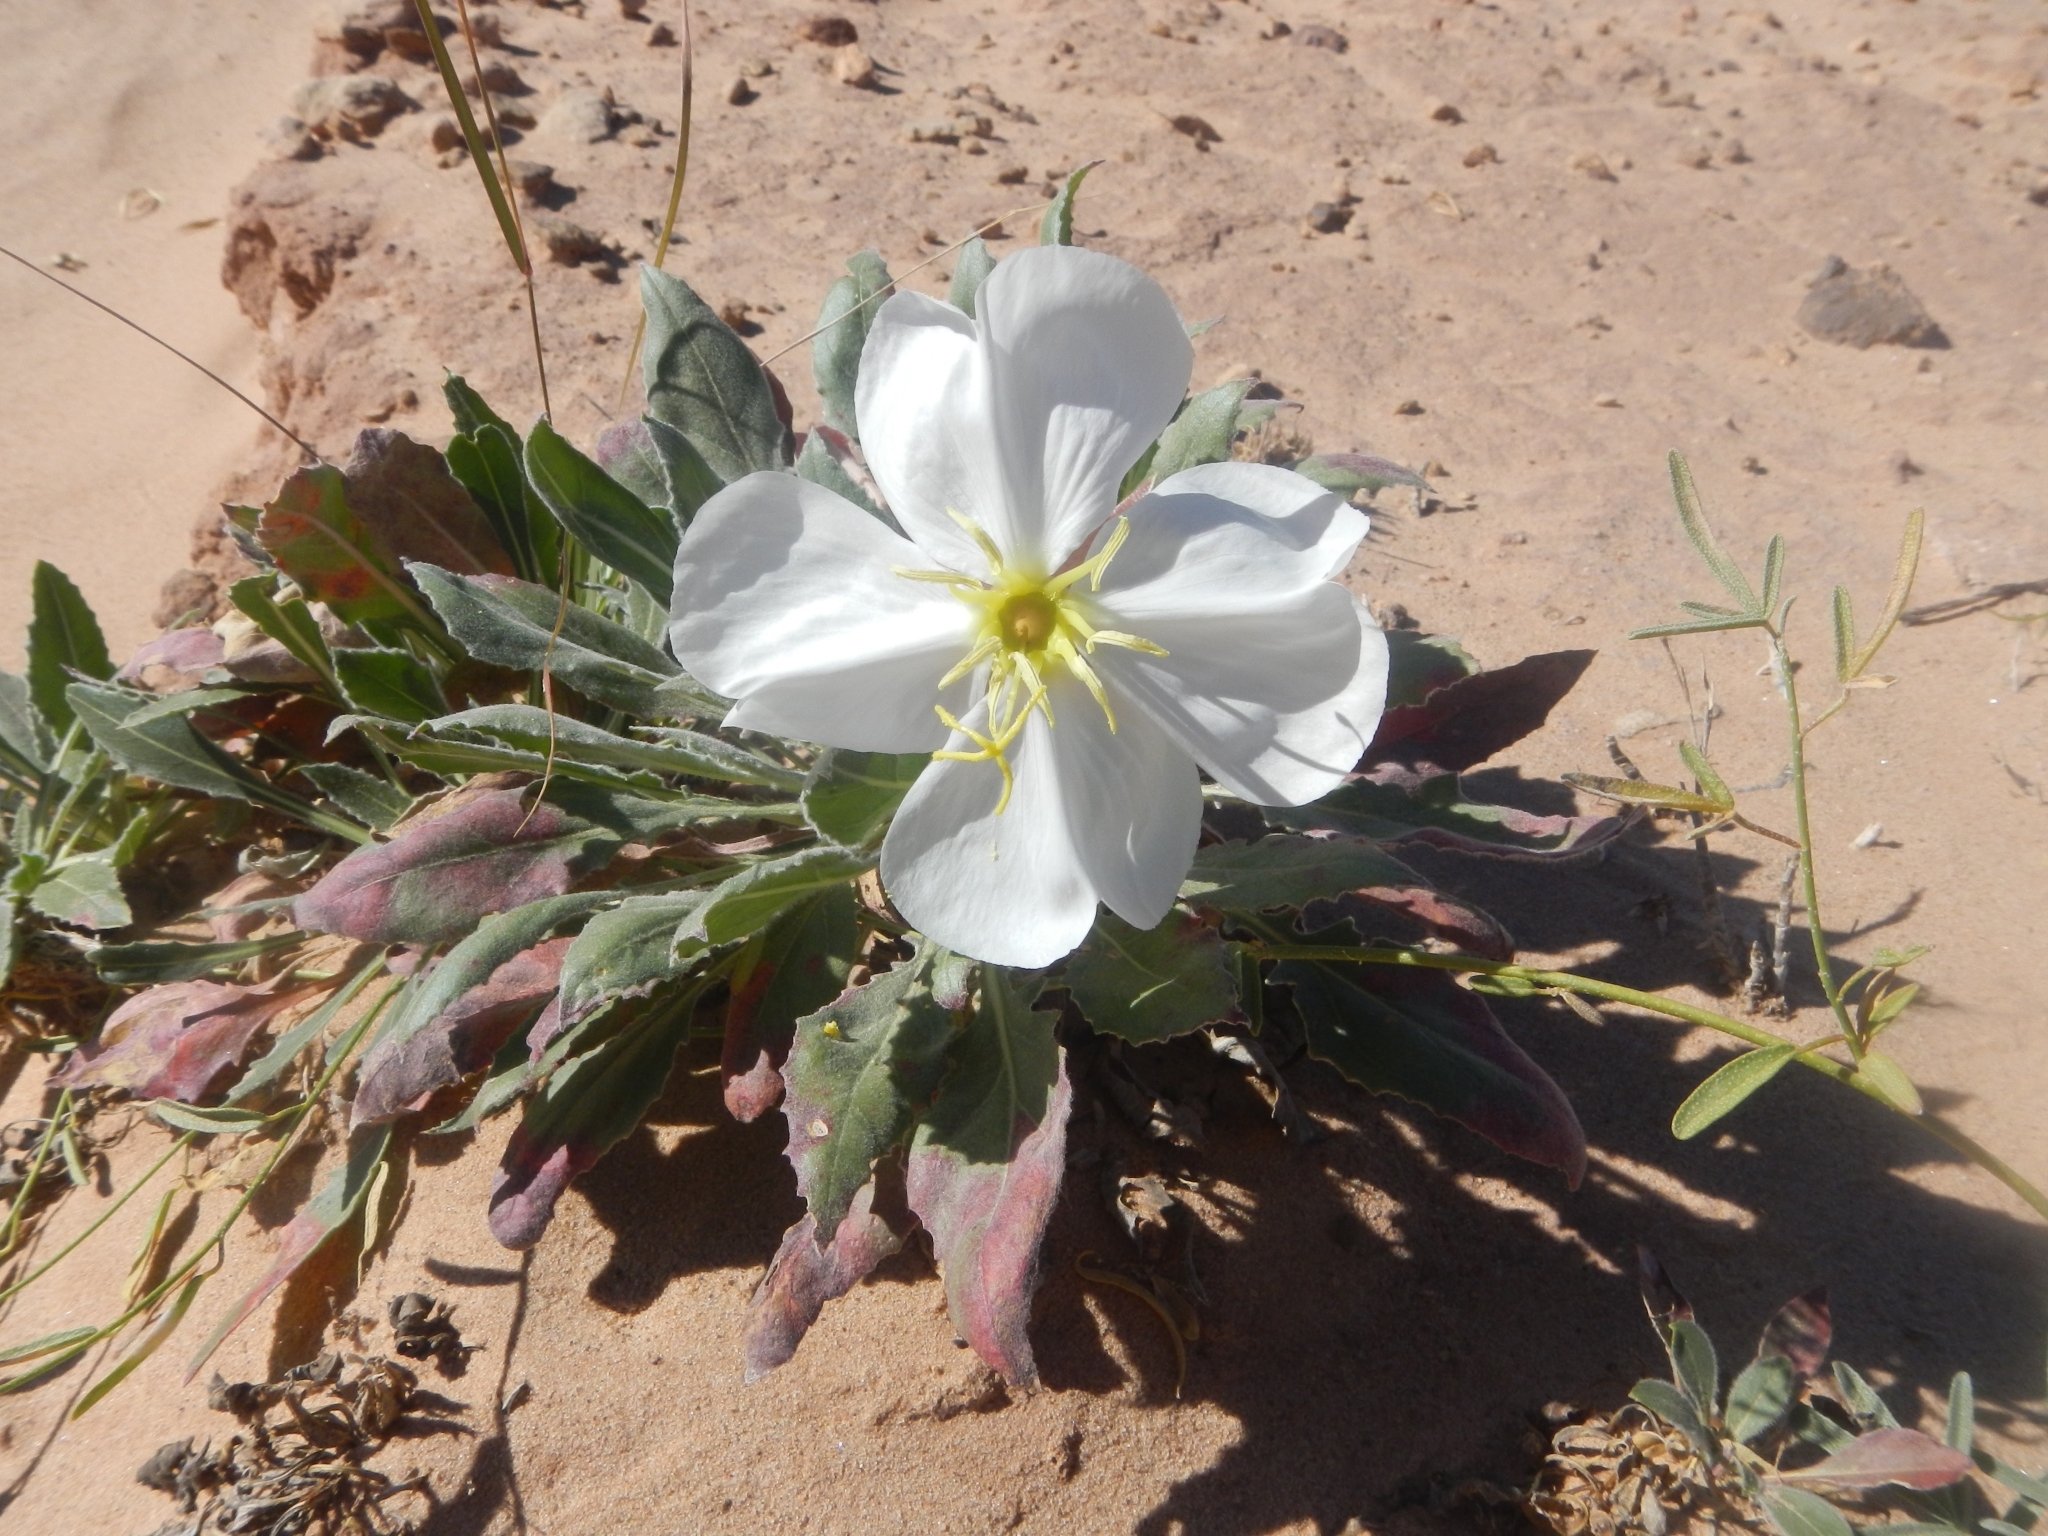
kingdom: Plantae
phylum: Tracheophyta
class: Magnoliopsida
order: Myrtales
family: Onagraceae
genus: Oenothera
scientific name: Oenothera cespitosa
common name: Tufted evening-primrose
